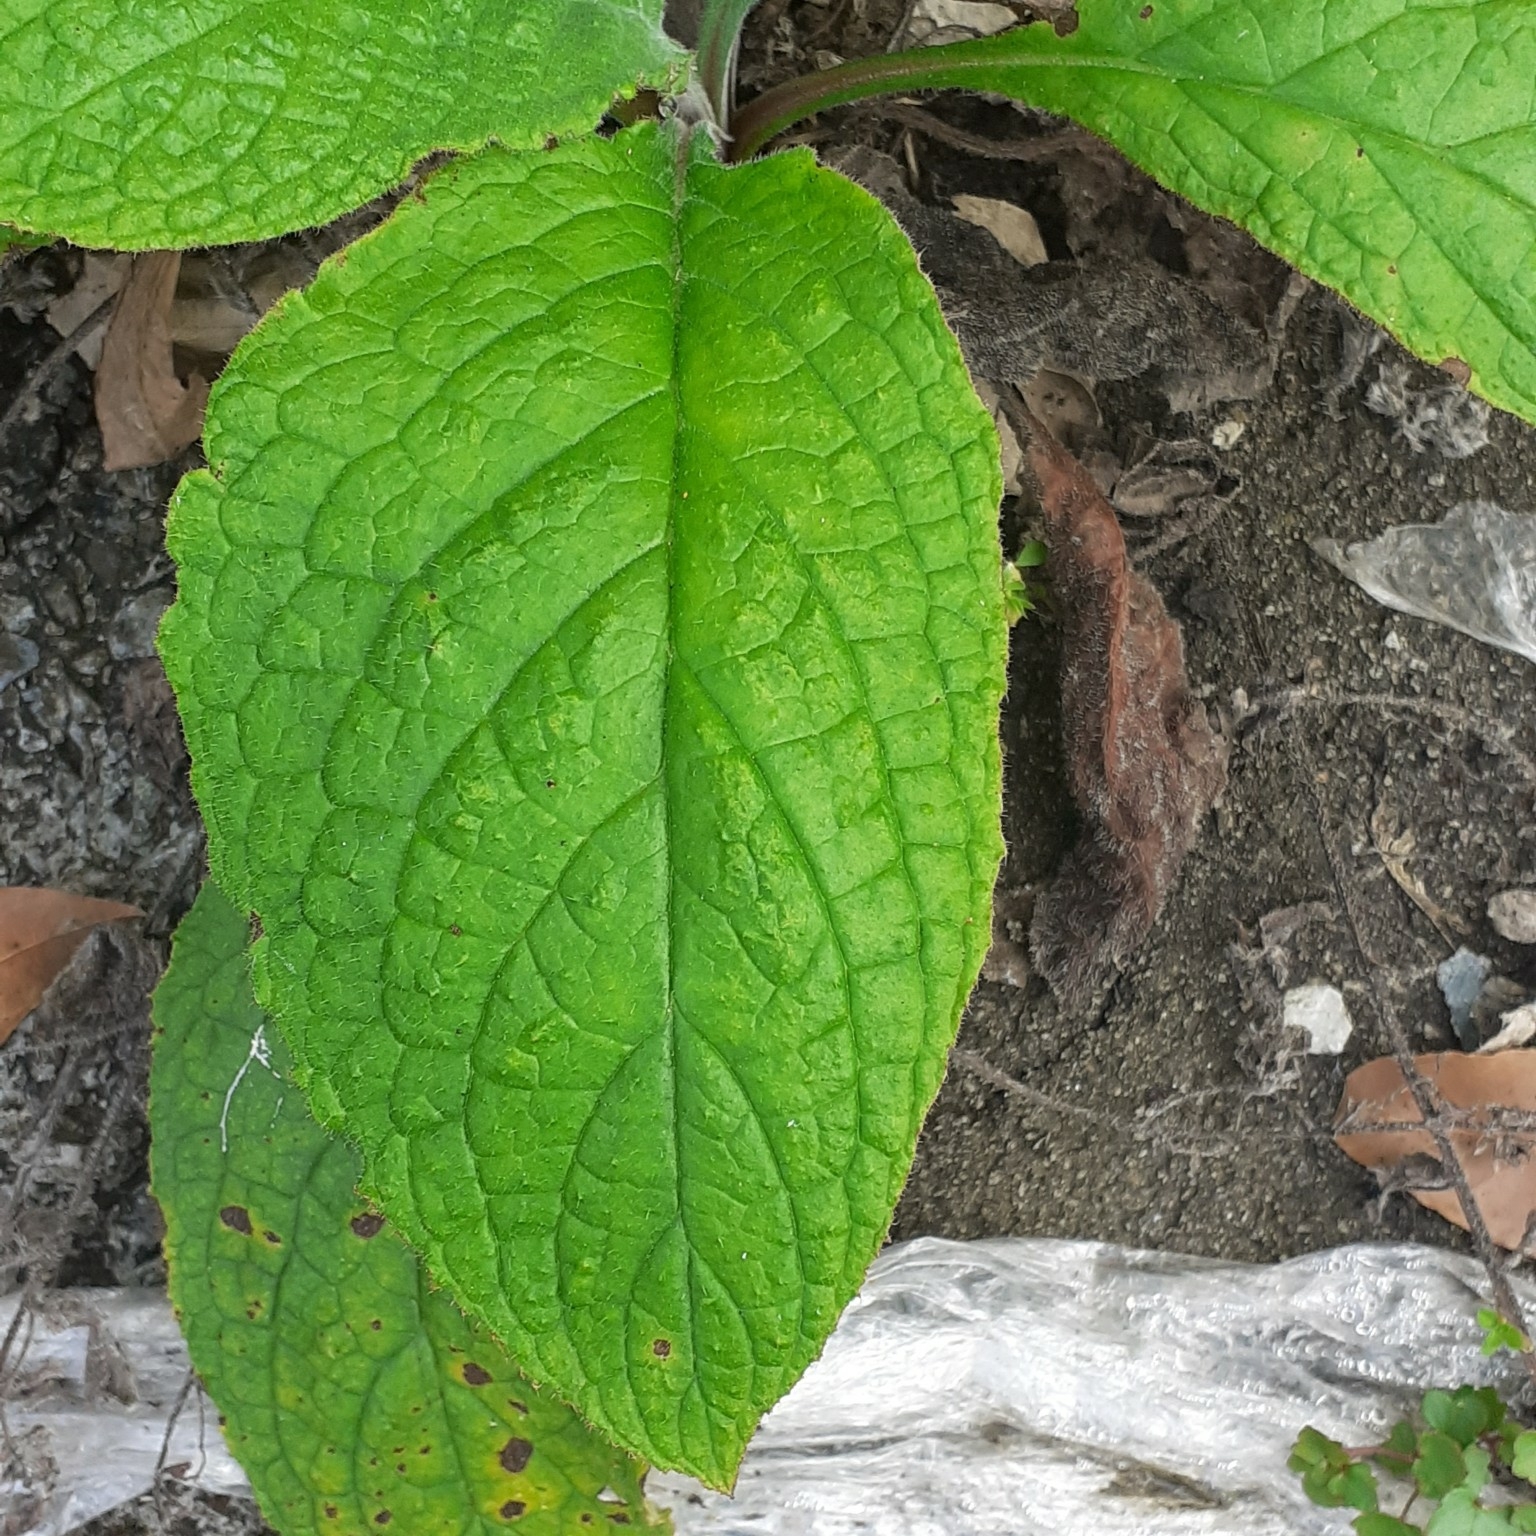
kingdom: Plantae
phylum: Tracheophyta
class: Magnoliopsida
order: Boraginales
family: Boraginaceae
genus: Pentaglottis
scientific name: Pentaglottis sempervirens
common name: Green alkanet
